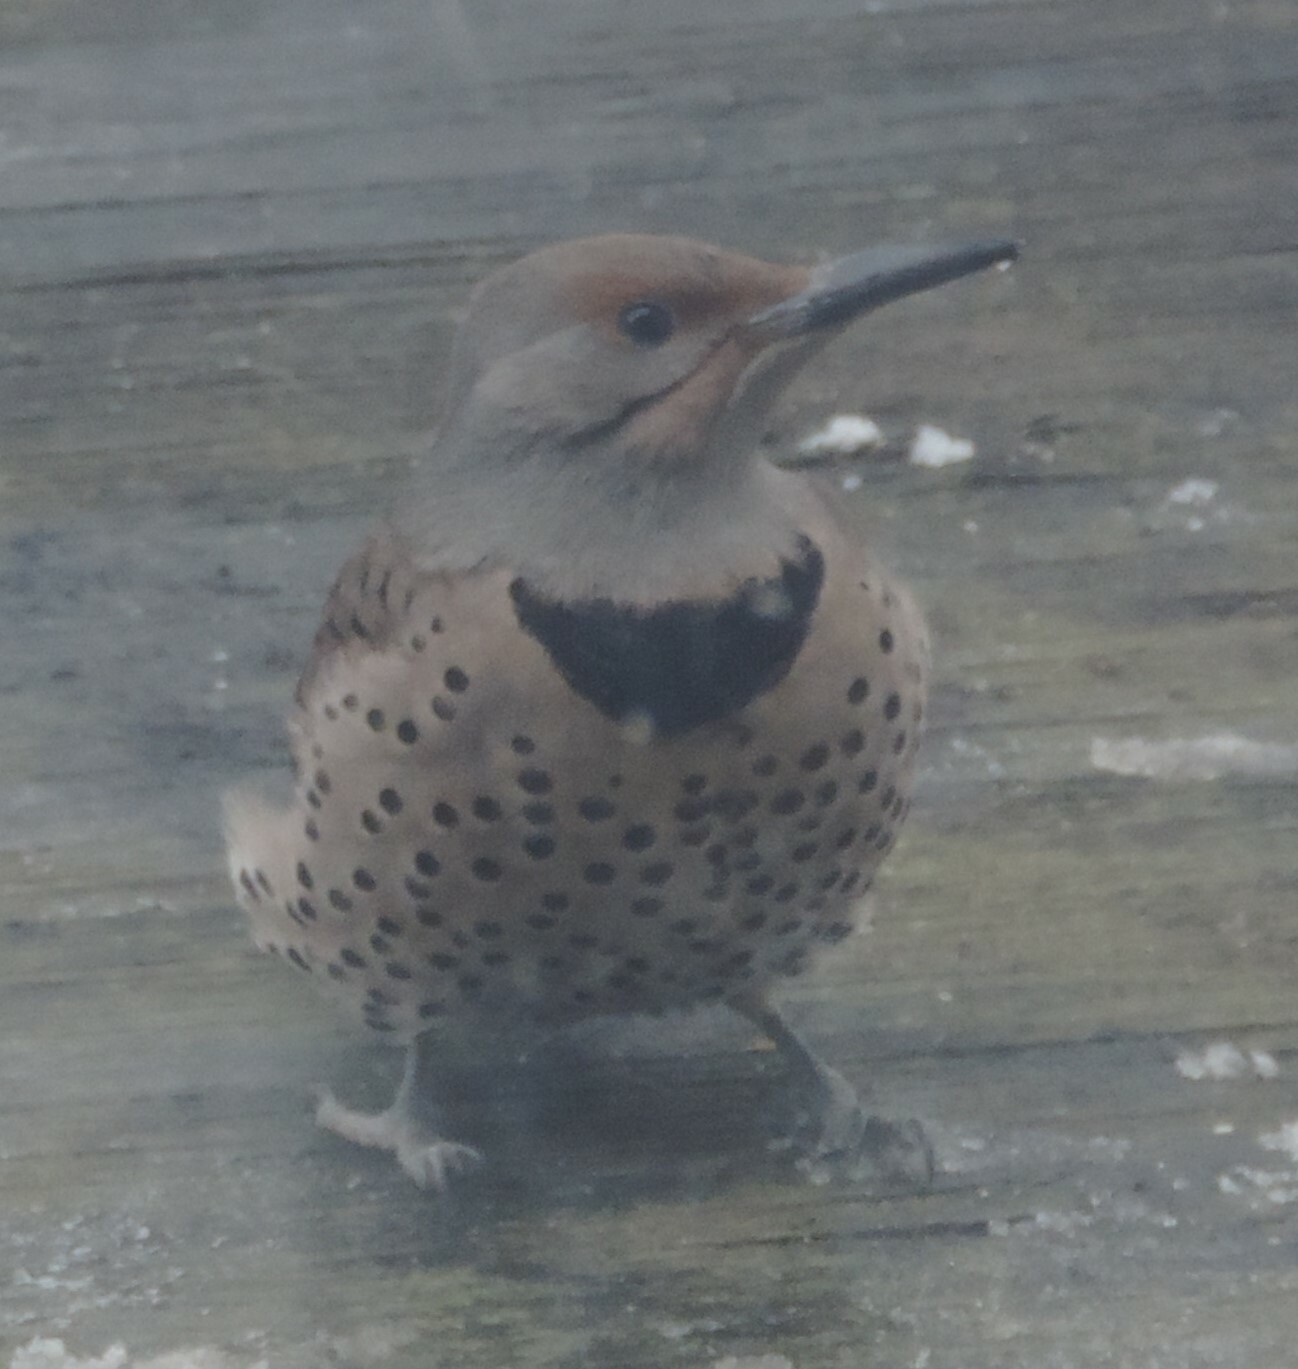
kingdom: Animalia
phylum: Chordata
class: Aves
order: Piciformes
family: Picidae
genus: Colaptes
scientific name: Colaptes auratus
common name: Northern flicker
